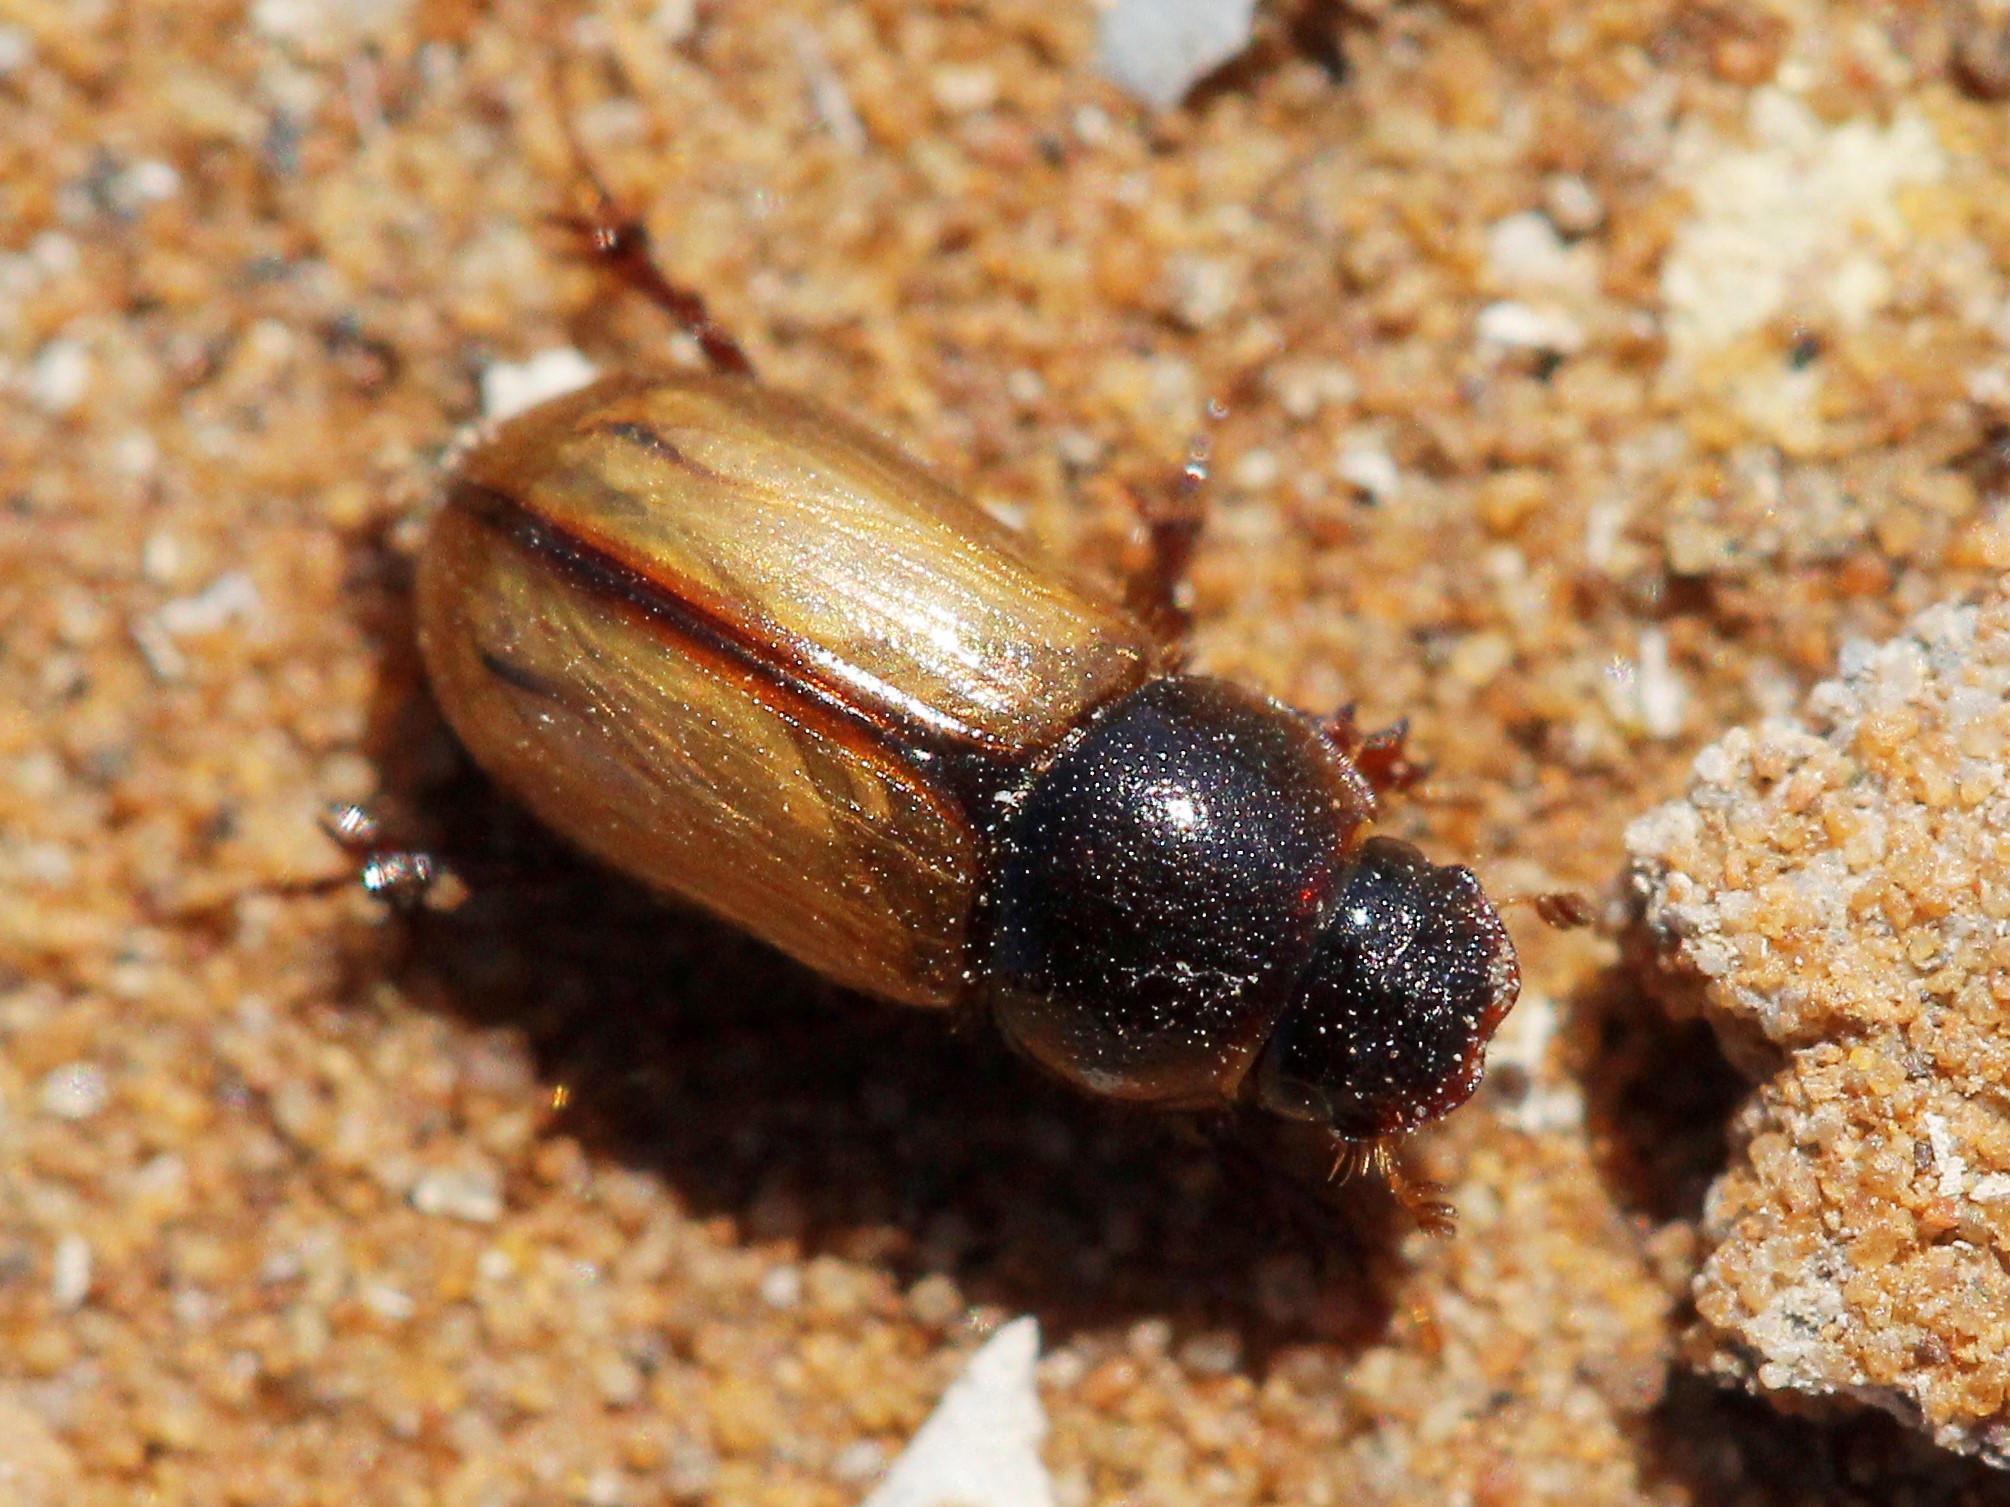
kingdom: Animalia
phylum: Arthropoda
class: Insecta
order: Coleoptera
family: Scarabaeidae
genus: Mendidius
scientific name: Mendidius multiplex
